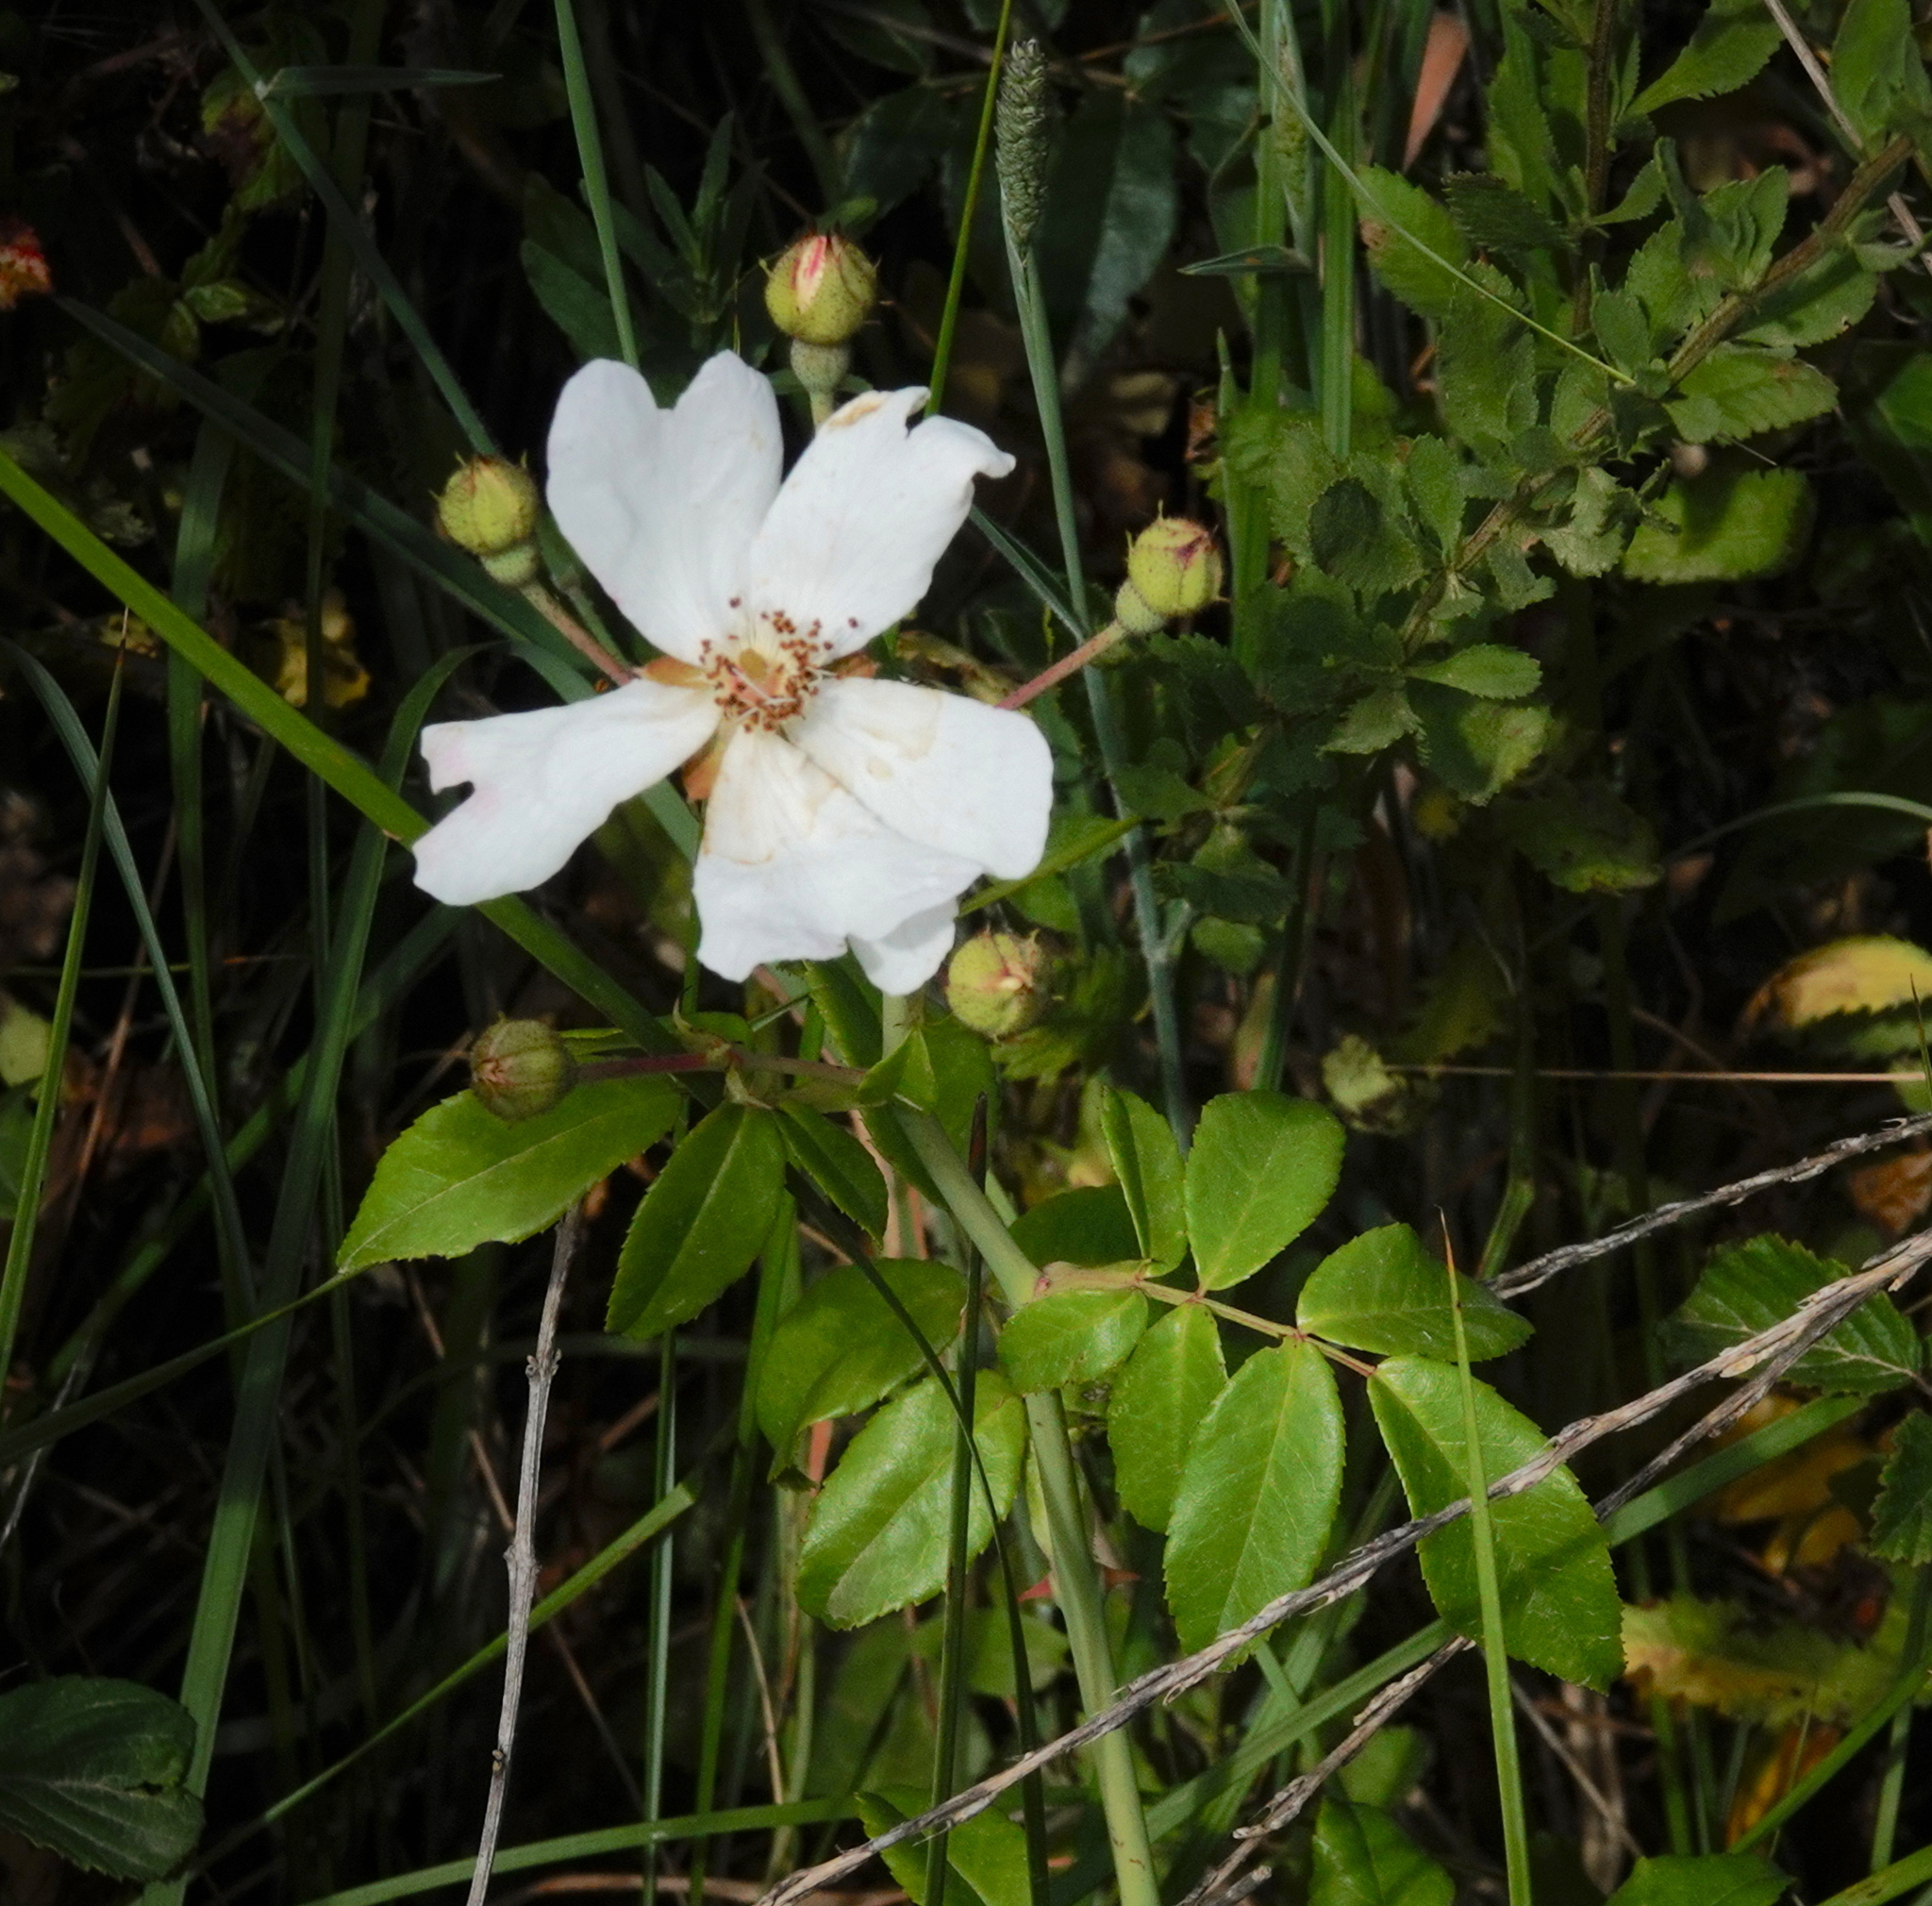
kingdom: Plantae
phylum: Tracheophyta
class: Magnoliopsida
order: Rosales
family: Rosaceae
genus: Rosa
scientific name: Rosa sempervirens
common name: Evergreen rose
